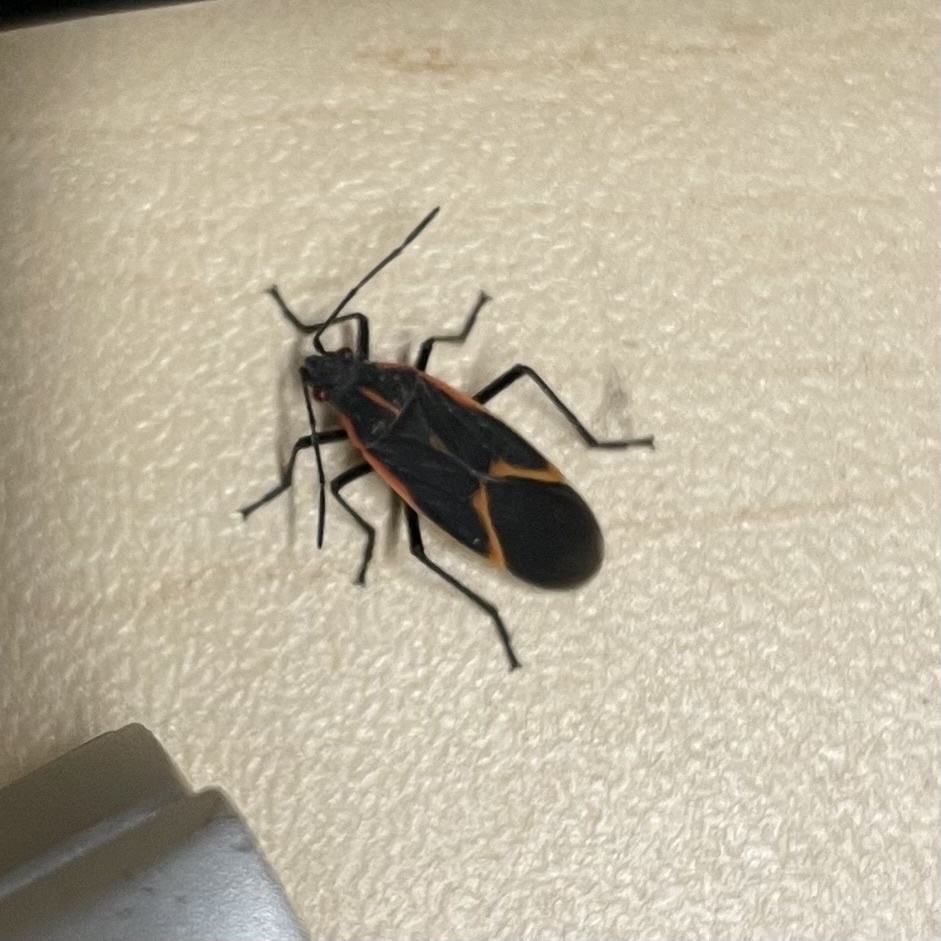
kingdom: Animalia
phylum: Arthropoda
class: Insecta
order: Hemiptera
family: Rhopalidae
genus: Boisea
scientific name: Boisea trivittata
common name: Boxelder bug
